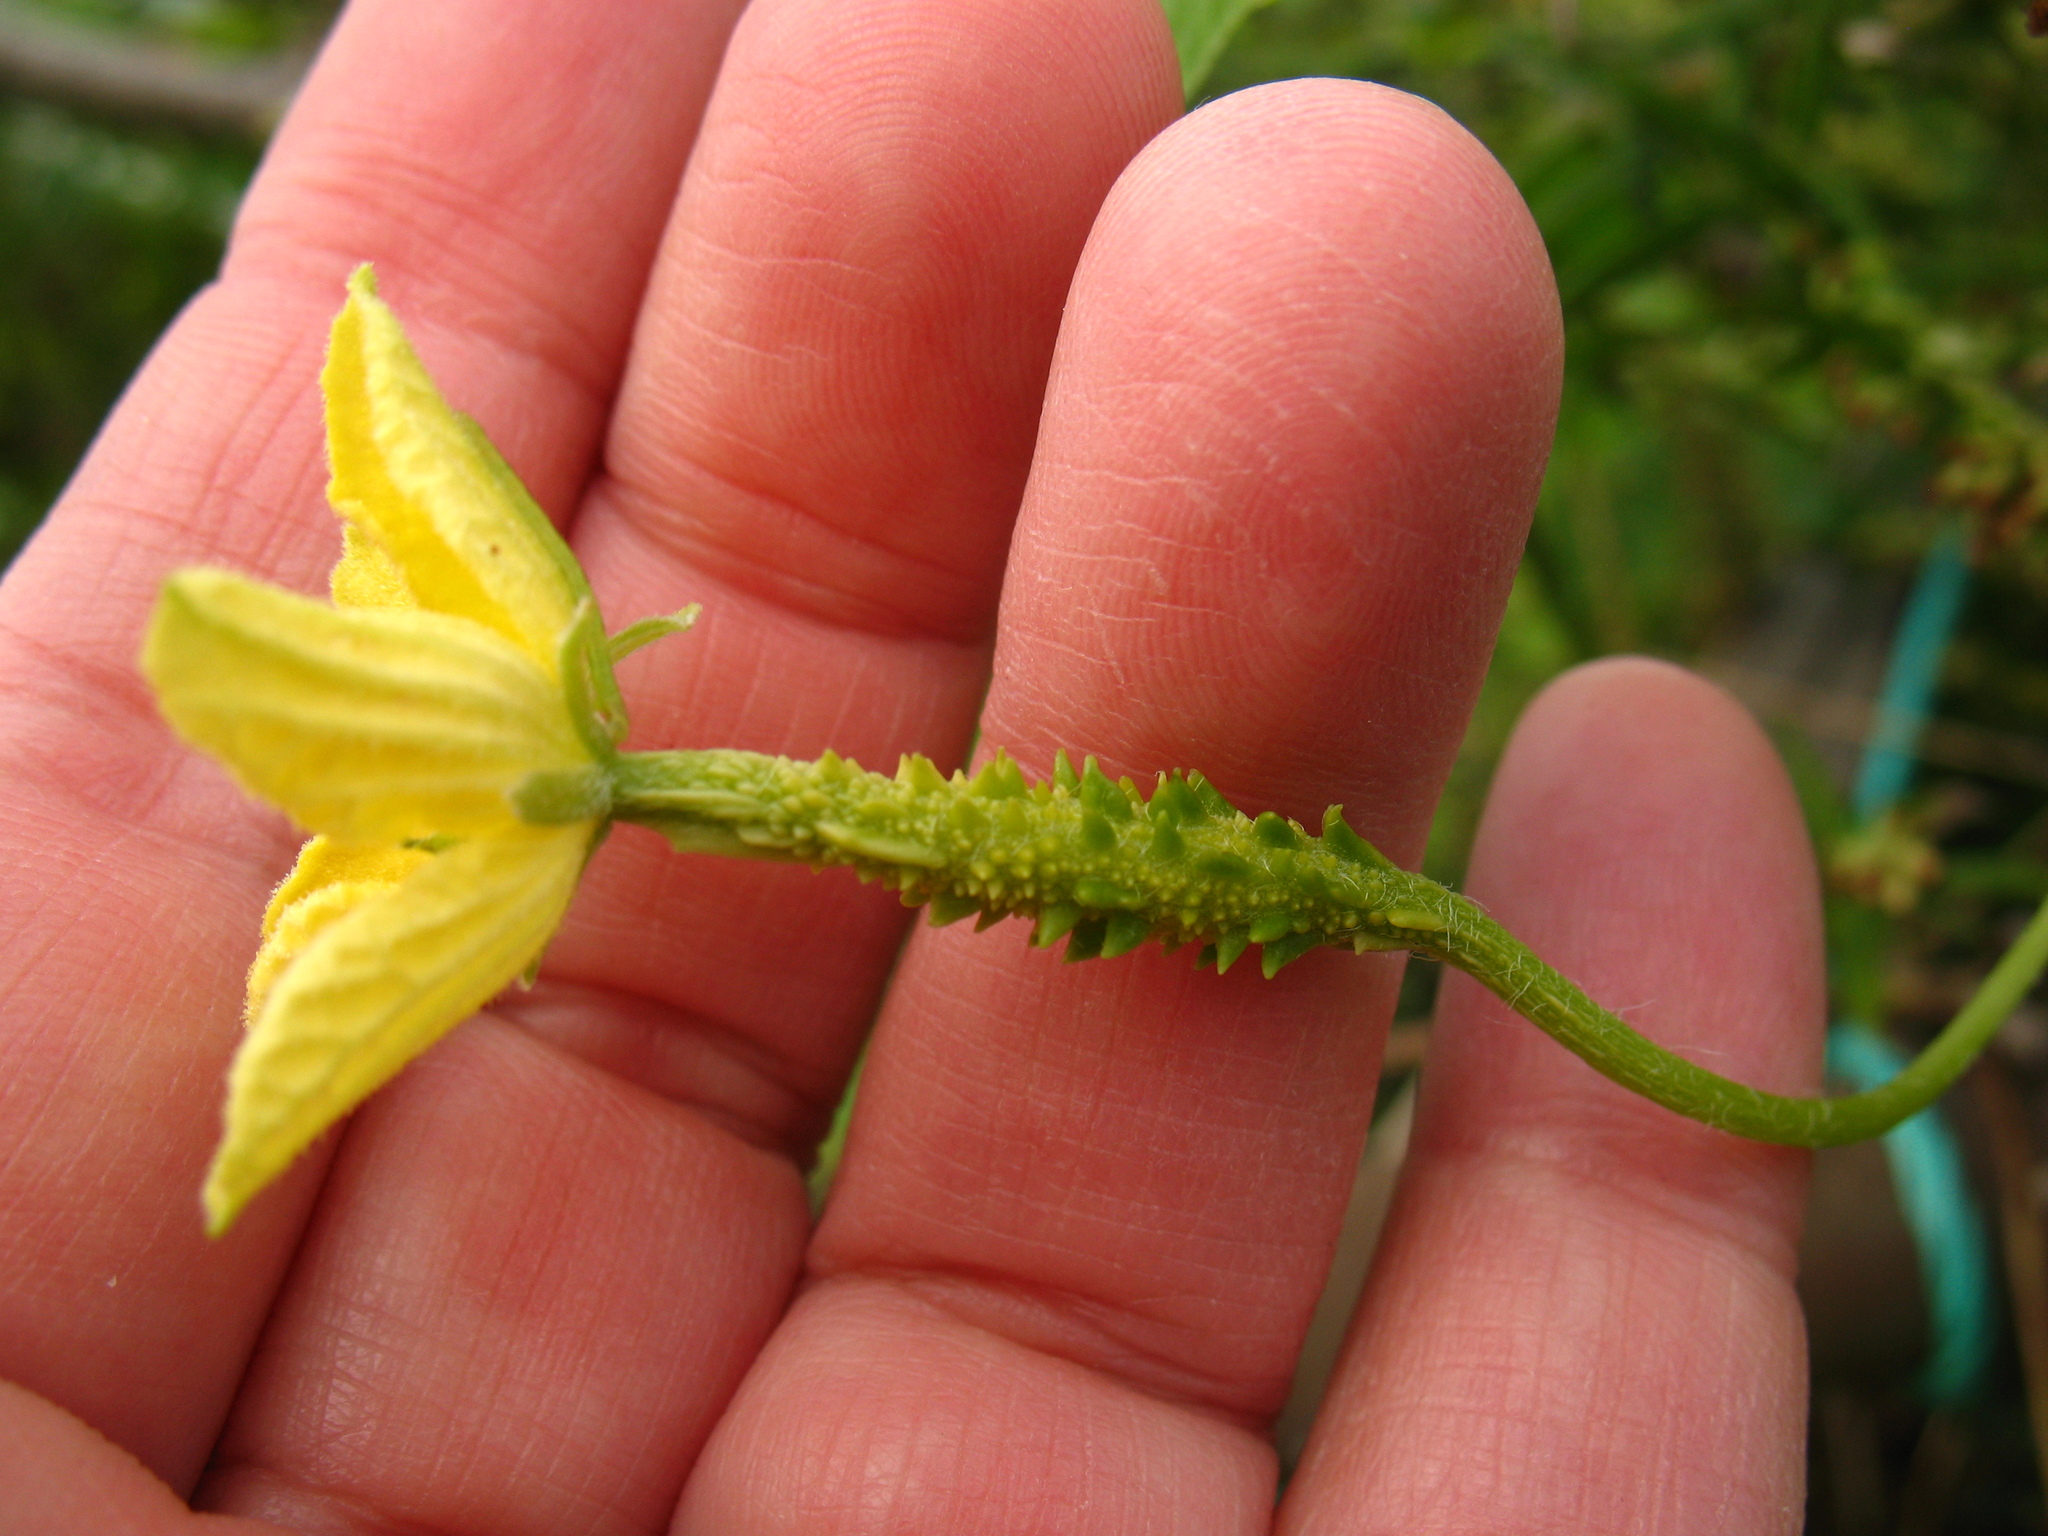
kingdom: Plantae
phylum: Tracheophyta
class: Magnoliopsida
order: Cucurbitales
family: Cucurbitaceae
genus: Momordica
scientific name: Momordica charantia
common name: Balsampear
